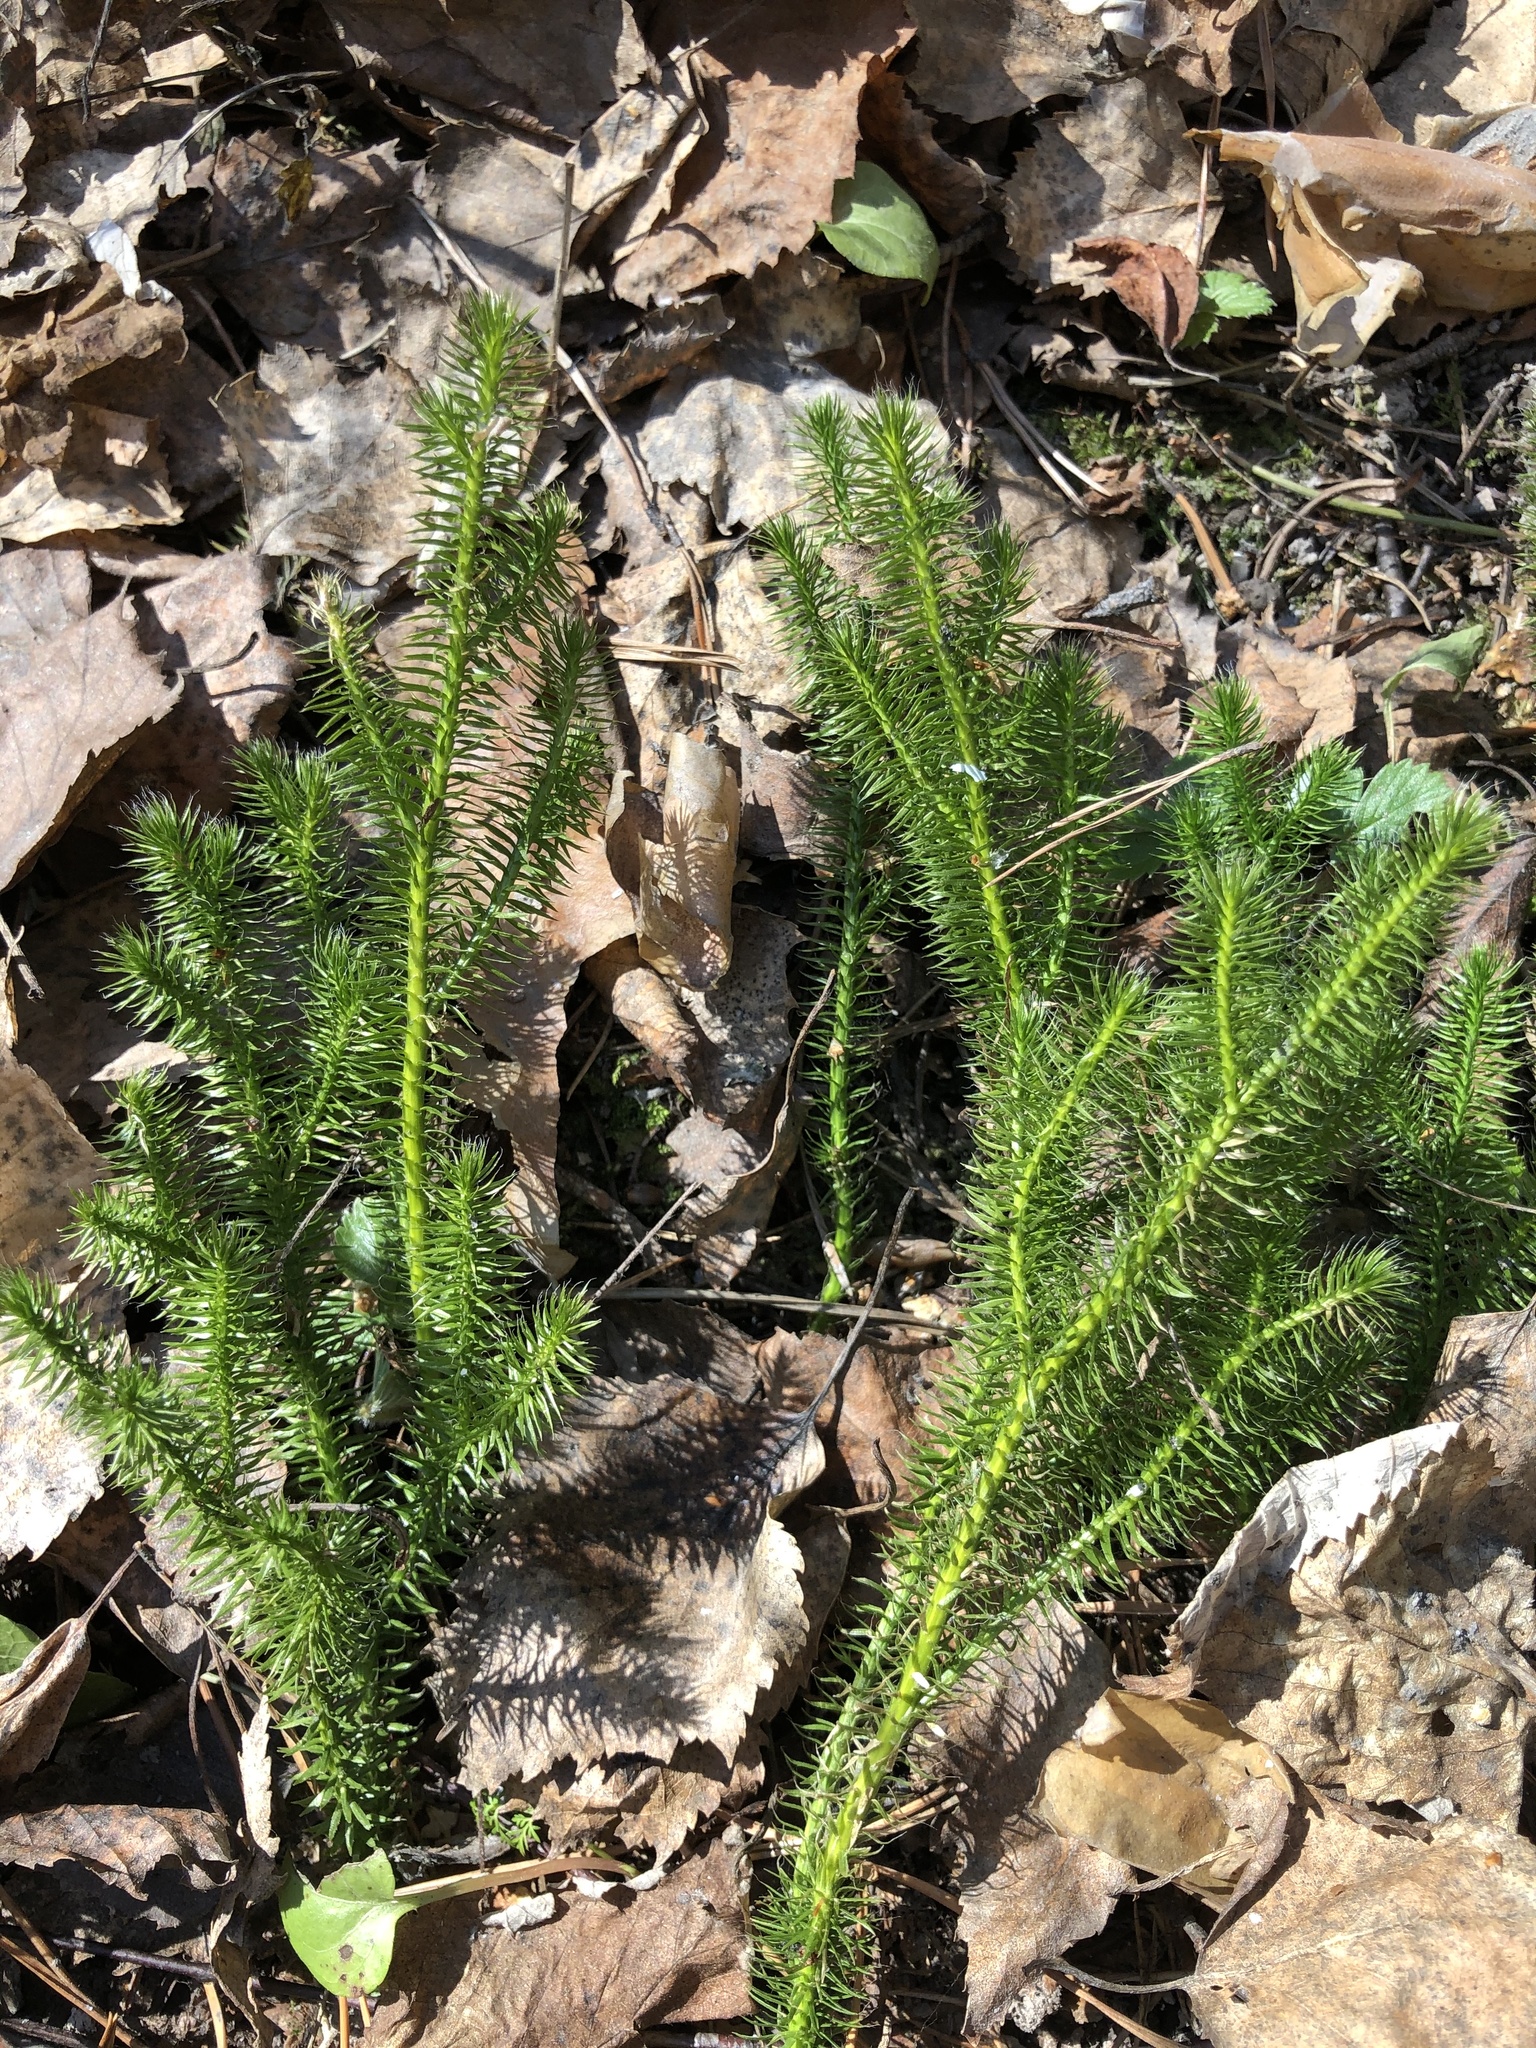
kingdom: Plantae
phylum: Tracheophyta
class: Lycopodiopsida
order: Lycopodiales
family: Lycopodiaceae
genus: Lycopodium
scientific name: Lycopodium clavatum
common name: Stag's-horn clubmoss
